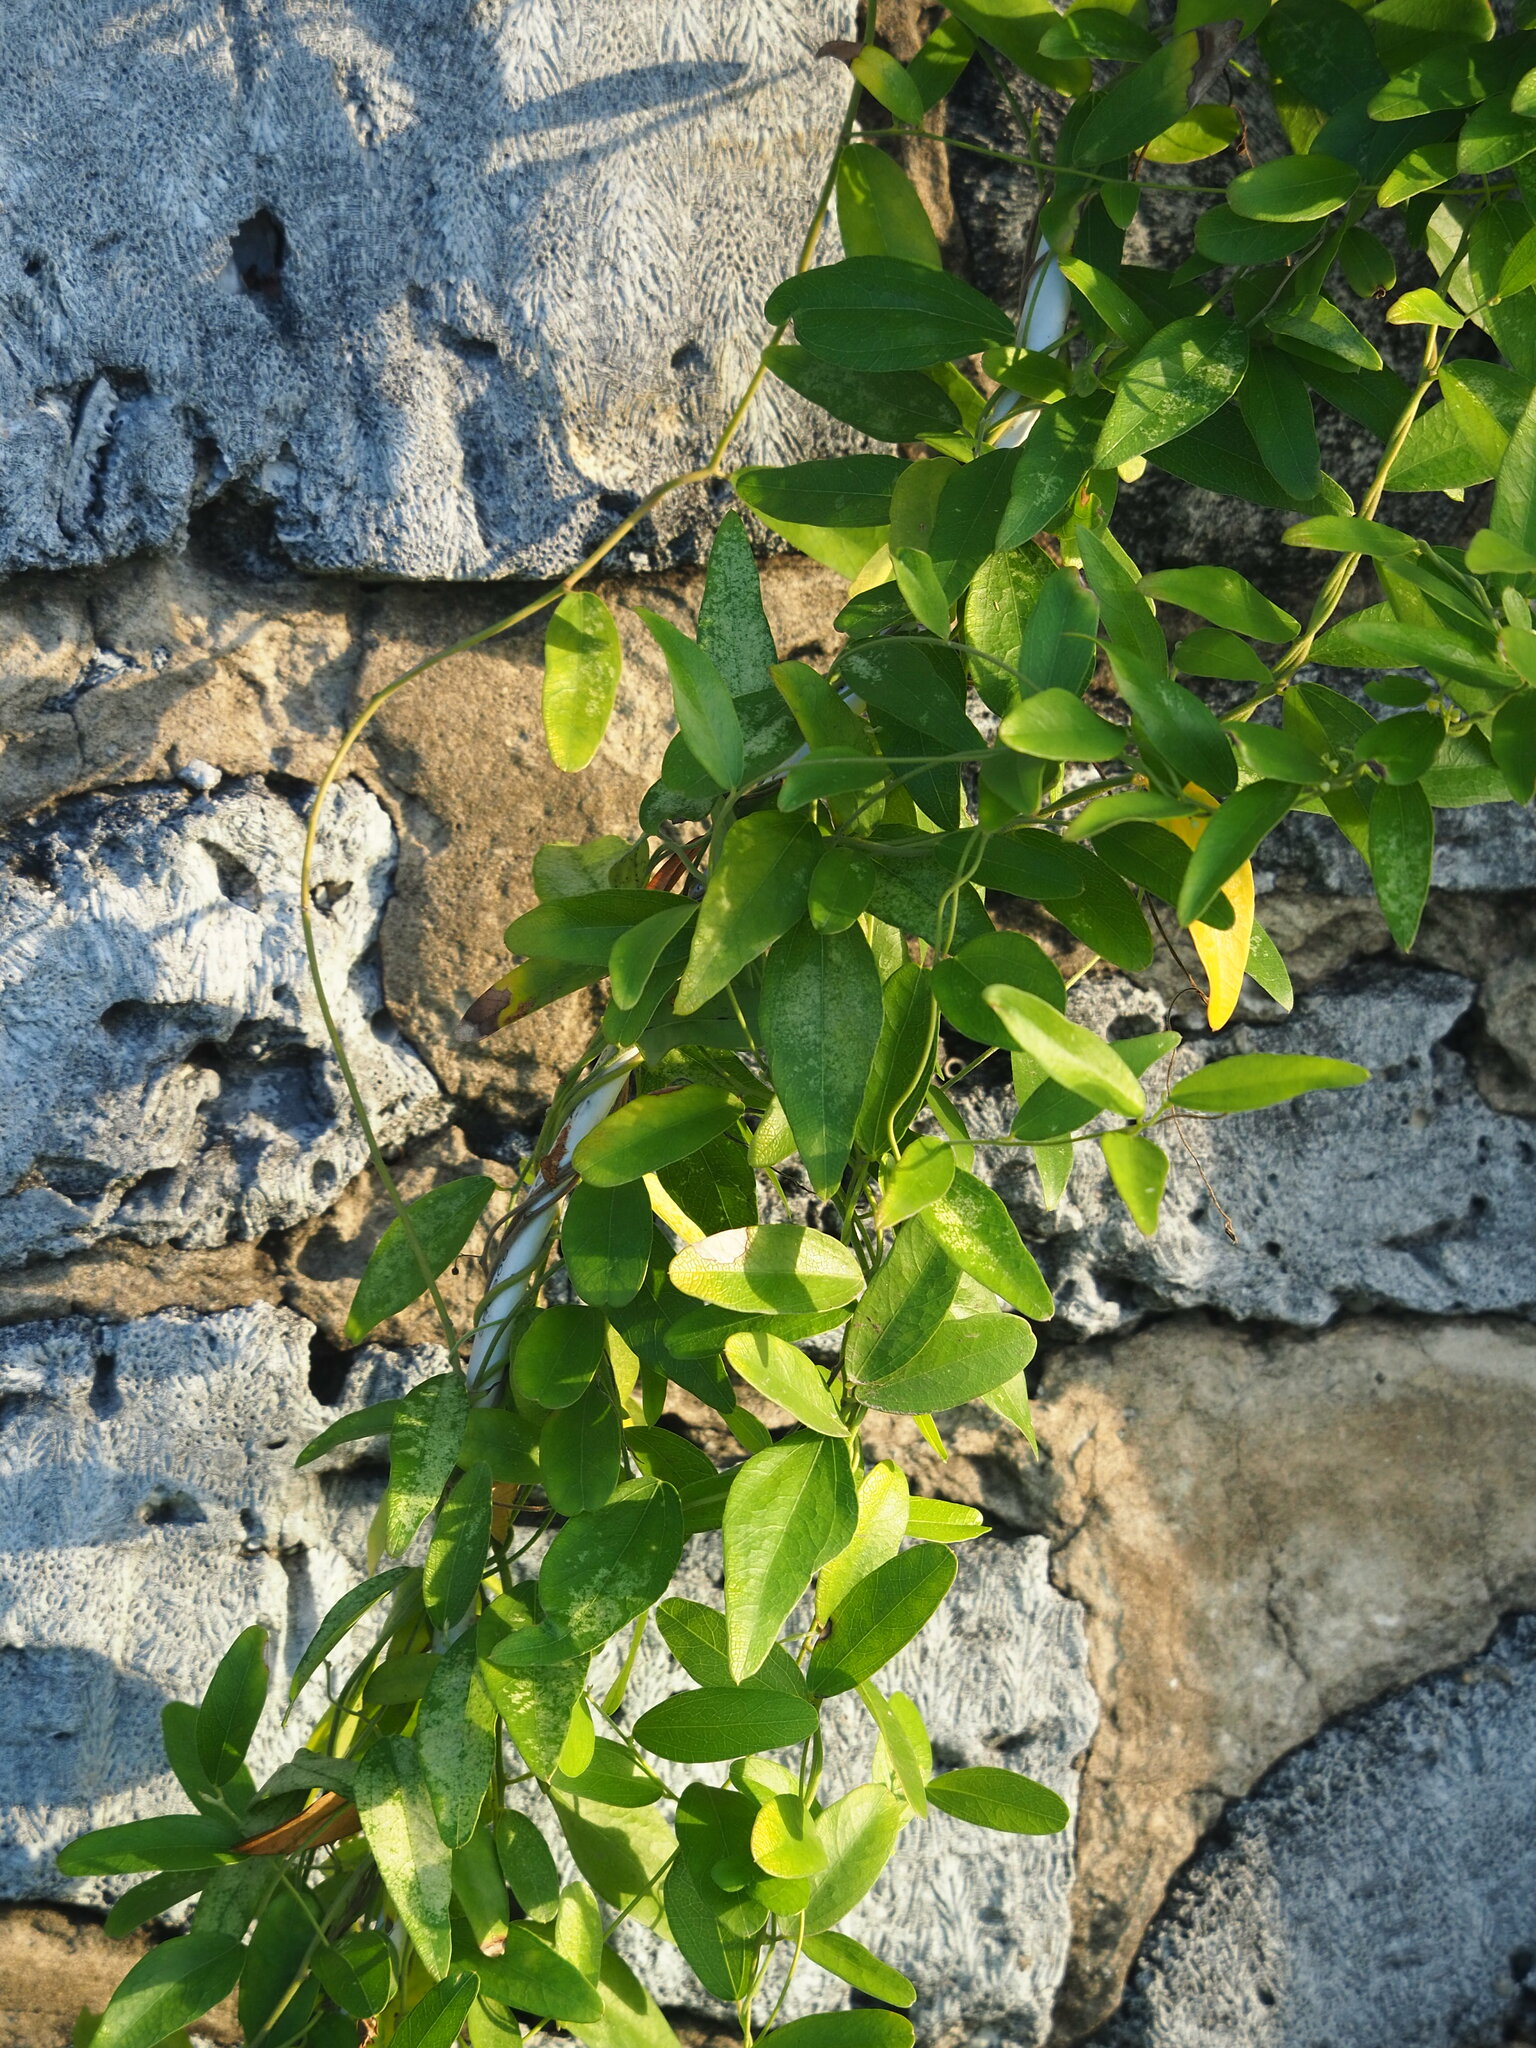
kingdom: Plantae
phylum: Tracheophyta
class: Magnoliopsida
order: Ranunculales
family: Menispermaceae
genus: Cocculus
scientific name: Cocculus orbiculatus
